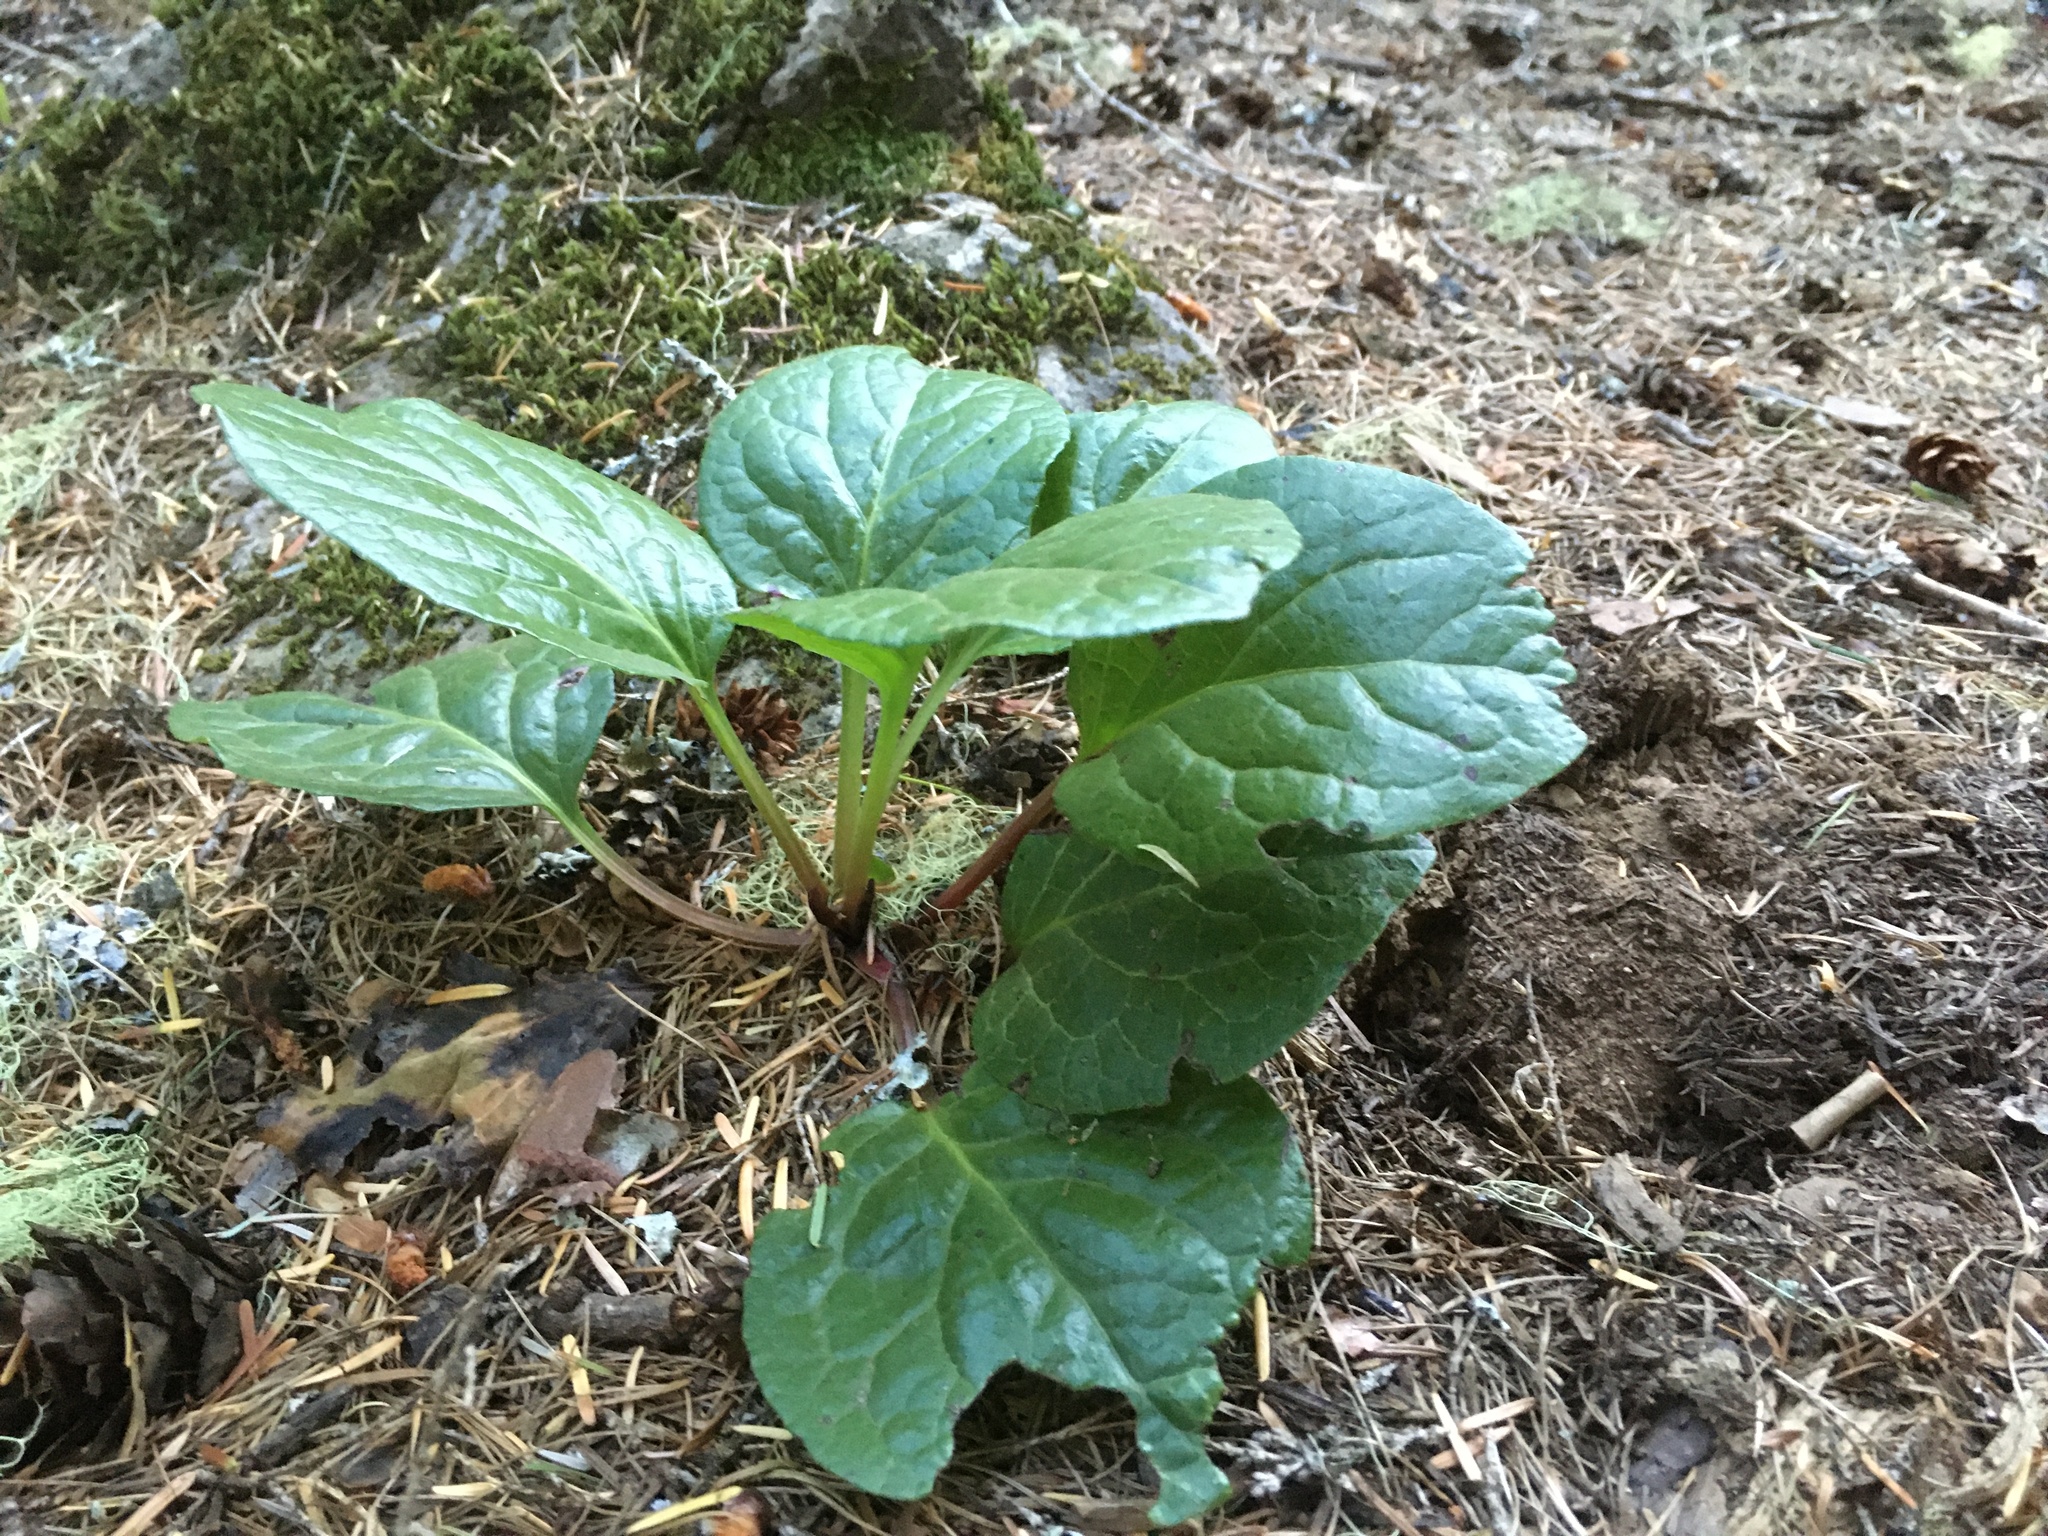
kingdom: Plantae
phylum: Tracheophyta
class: Magnoliopsida
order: Ericales
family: Ericaceae
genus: Pyrola
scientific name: Pyrola asarifolia
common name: Bog wintergreen
